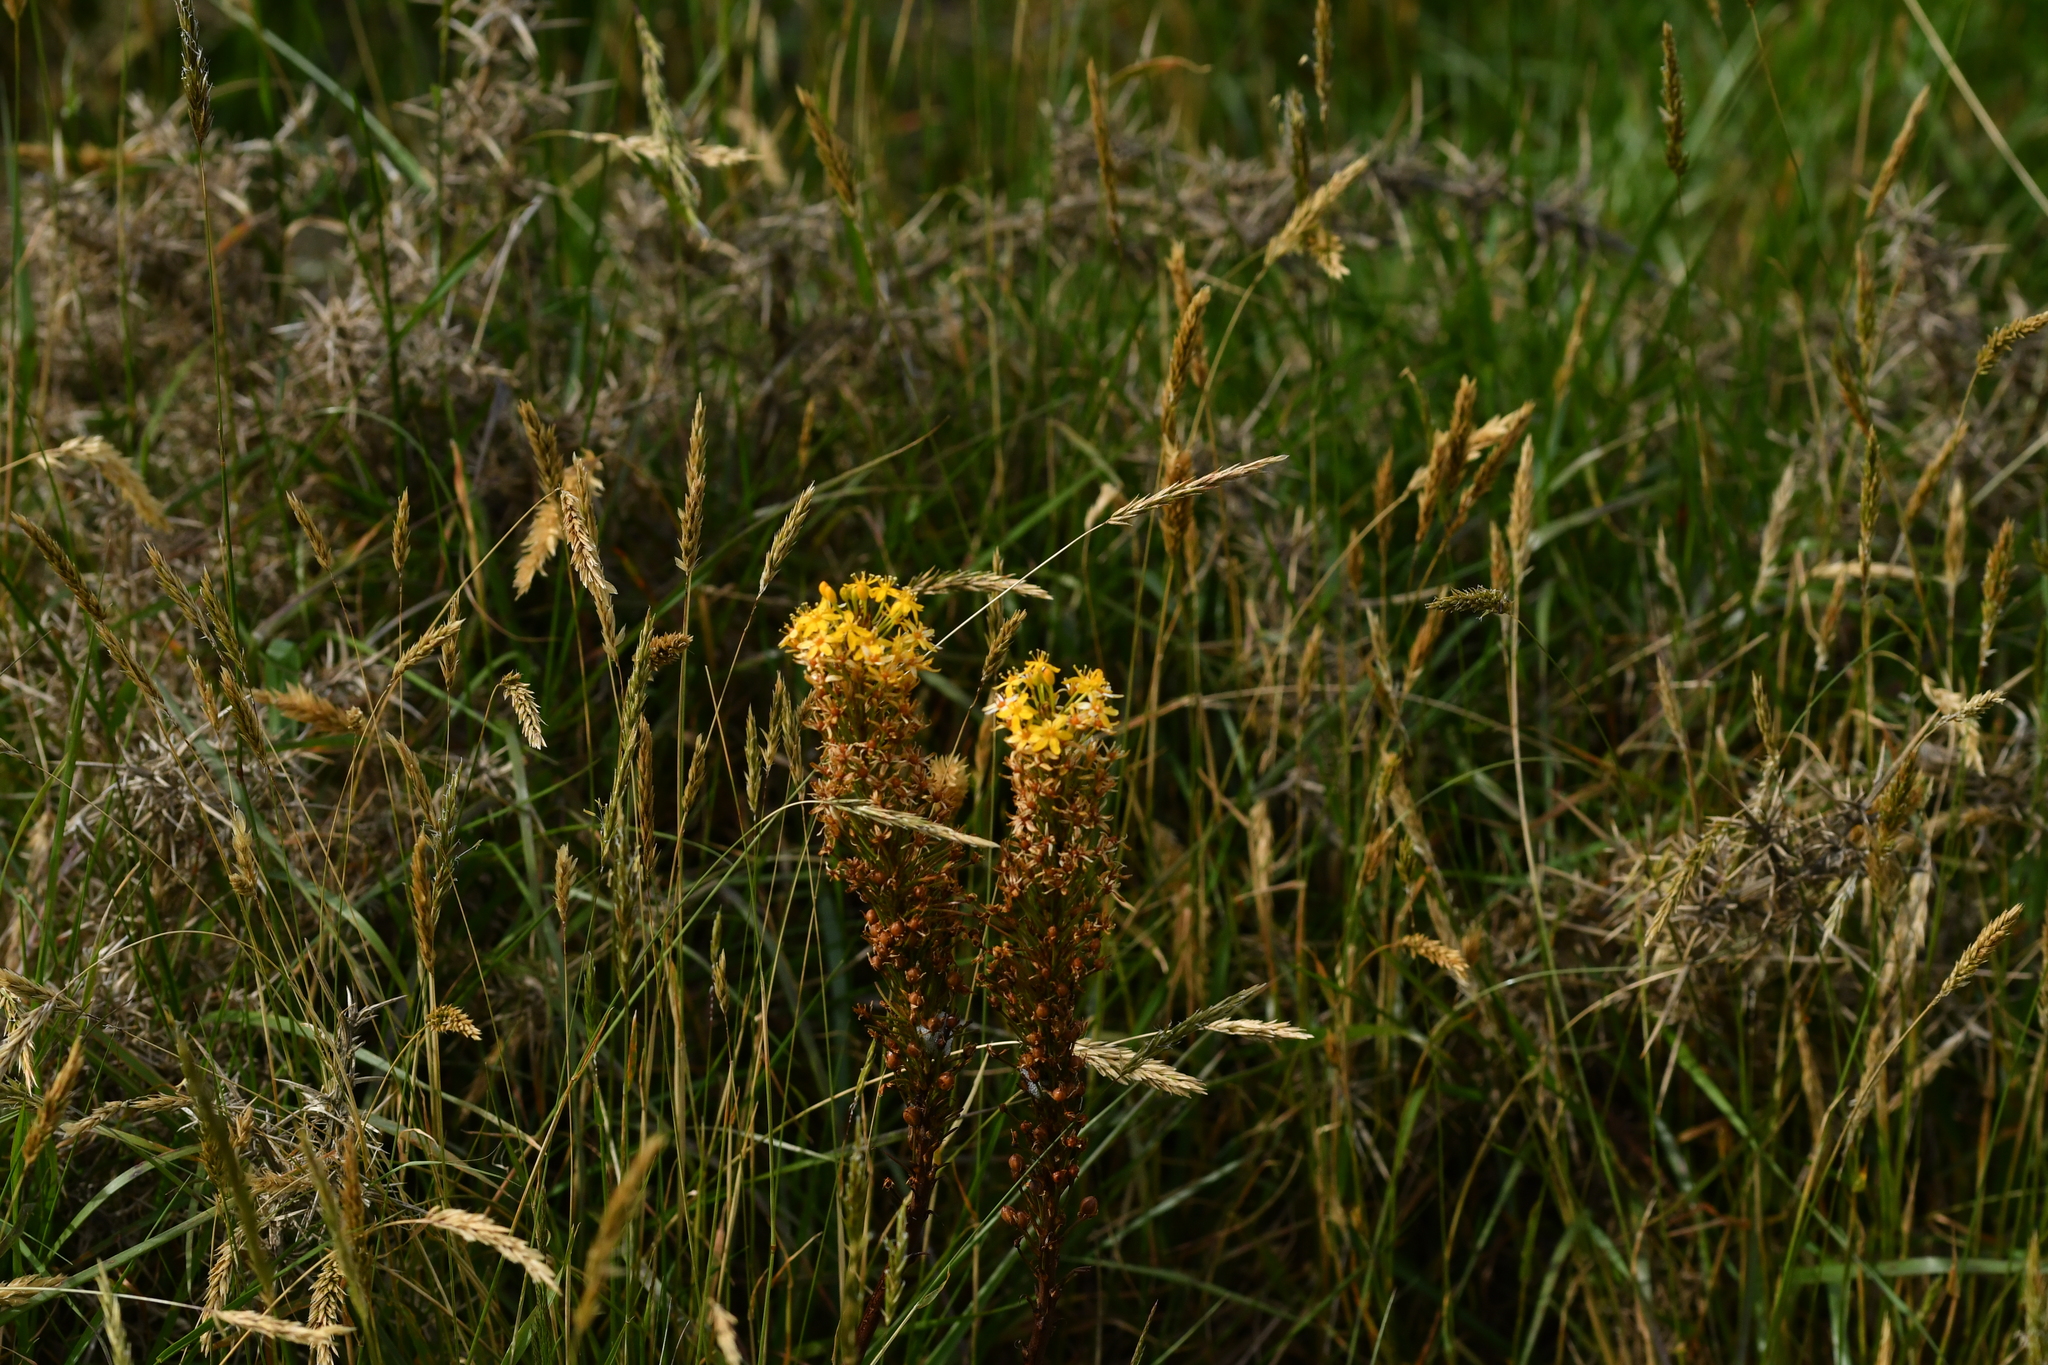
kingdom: Plantae
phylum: Tracheophyta
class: Liliopsida
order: Asparagales
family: Asphodelaceae
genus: Bulbinella
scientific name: Bulbinella angustifolia
